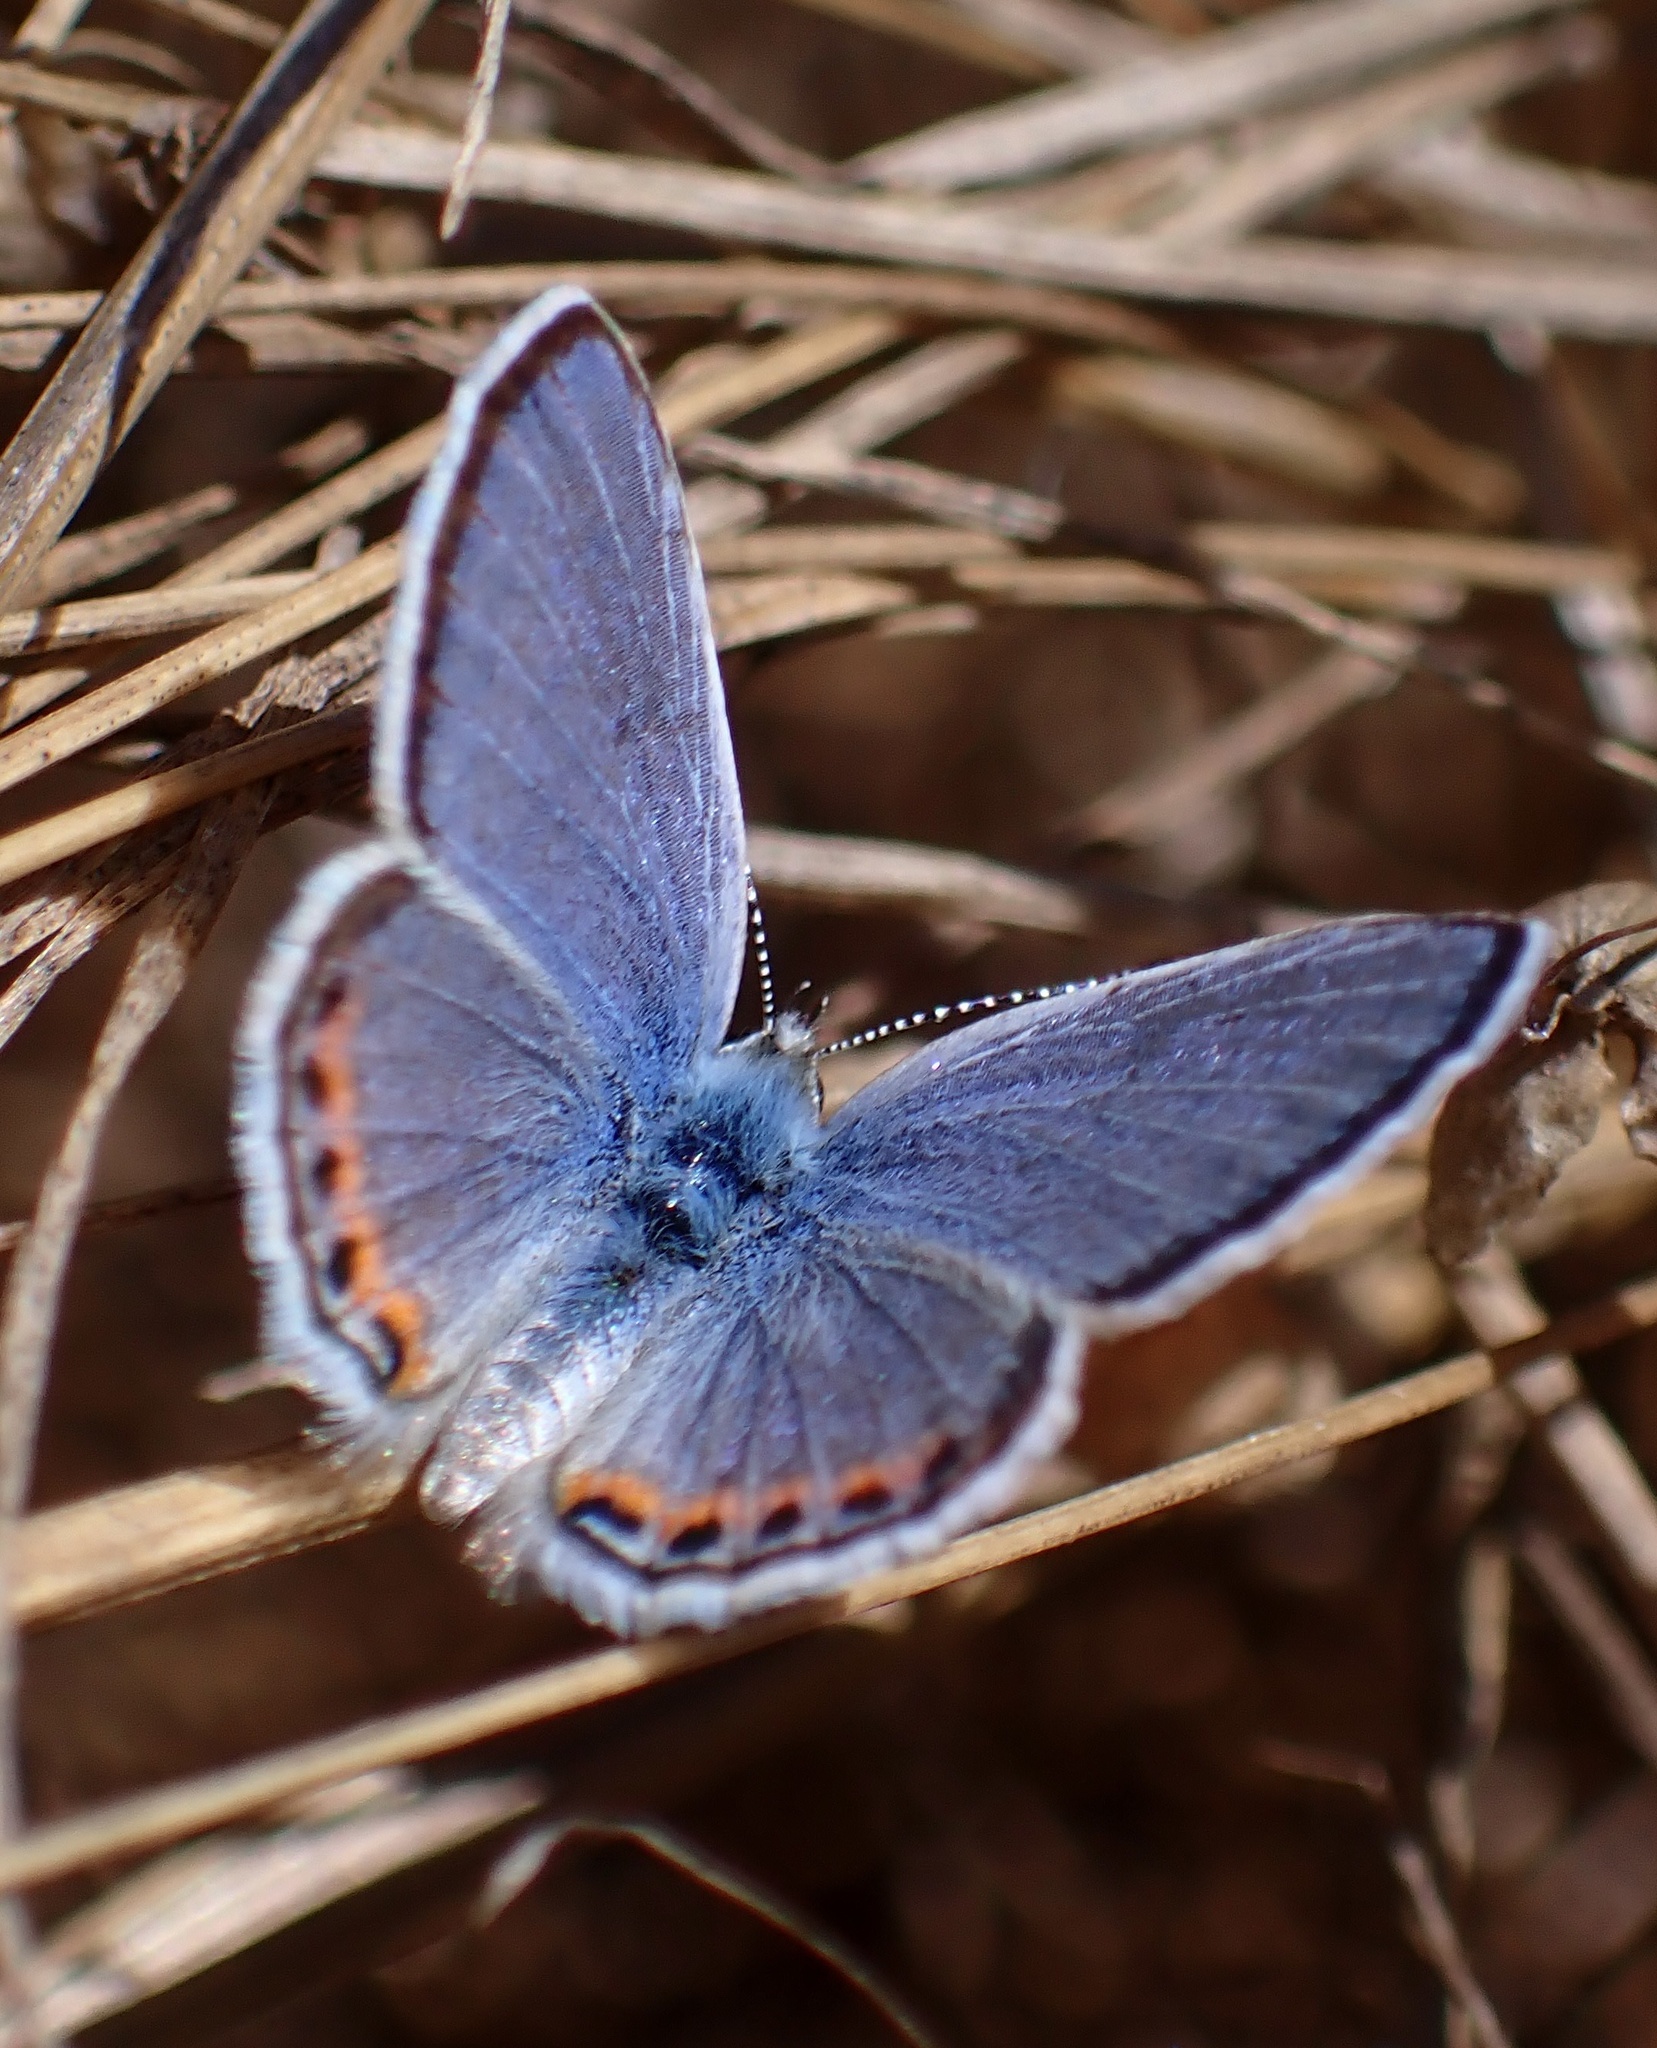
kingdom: Animalia
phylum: Arthropoda
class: Insecta
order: Lepidoptera
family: Lycaenidae
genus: Icaricia
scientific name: Icaricia acmon
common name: Acmon blue
